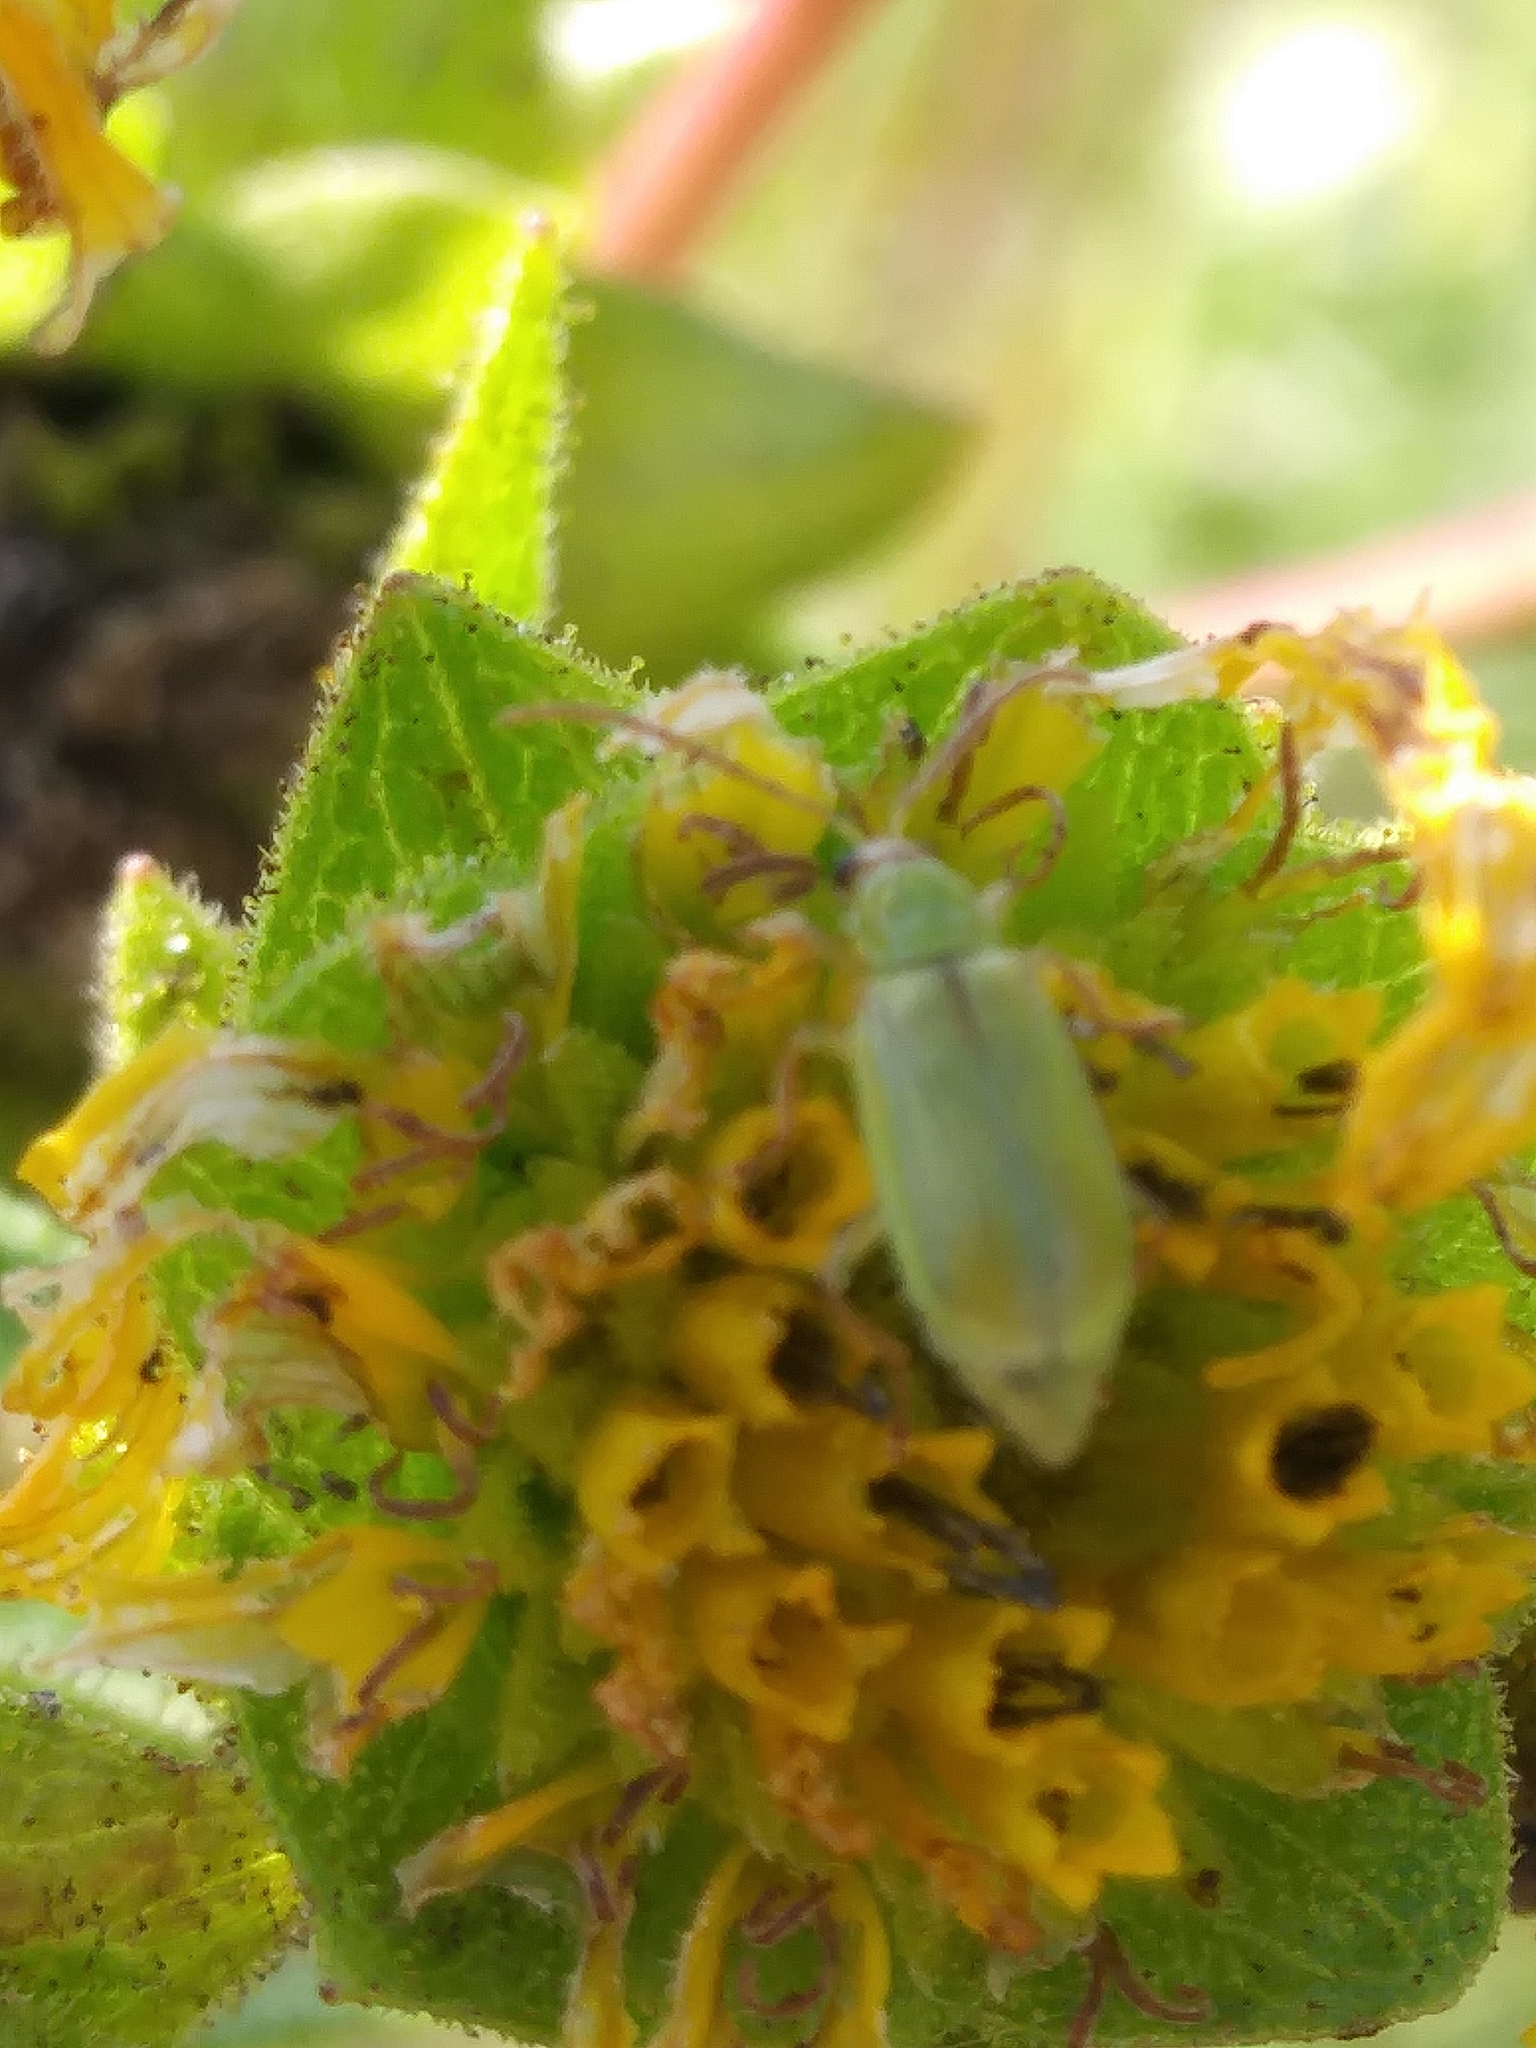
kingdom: Plantae
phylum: Tracheophyta
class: Magnoliopsida
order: Asterales
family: Asteraceae
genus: Silphium
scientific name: Silphium integrifolium
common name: Whole-leaf rosinweed
